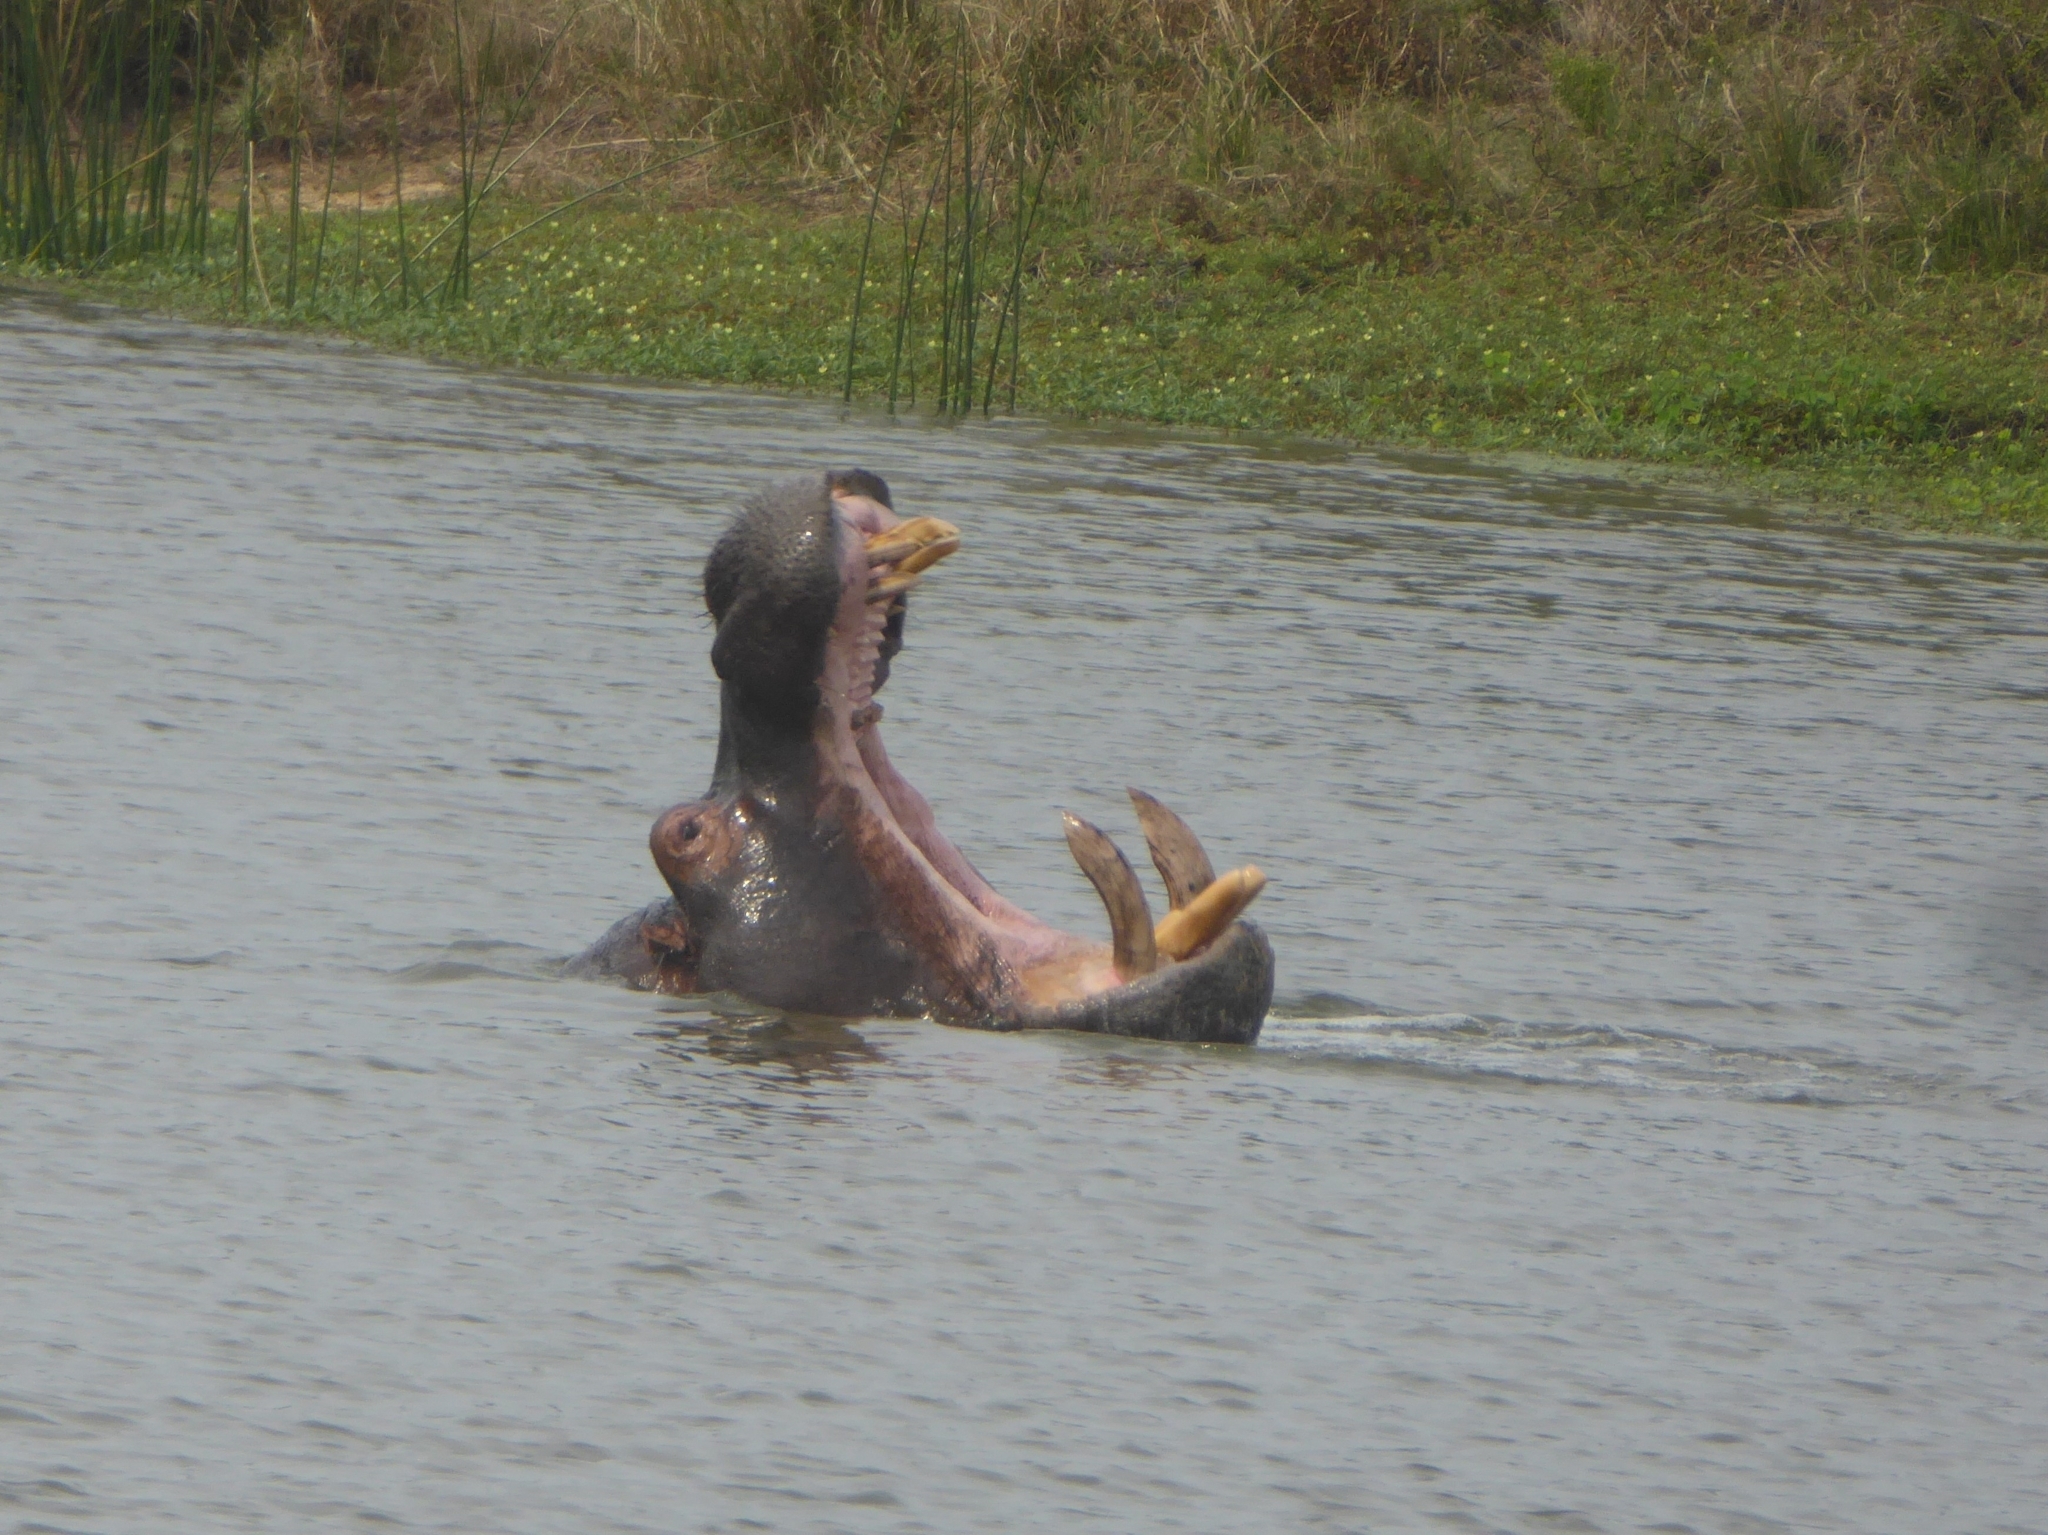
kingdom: Animalia
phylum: Chordata
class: Mammalia
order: Artiodactyla
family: Hippopotamidae
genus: Hippopotamus
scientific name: Hippopotamus amphibius
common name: Common hippopotamus
